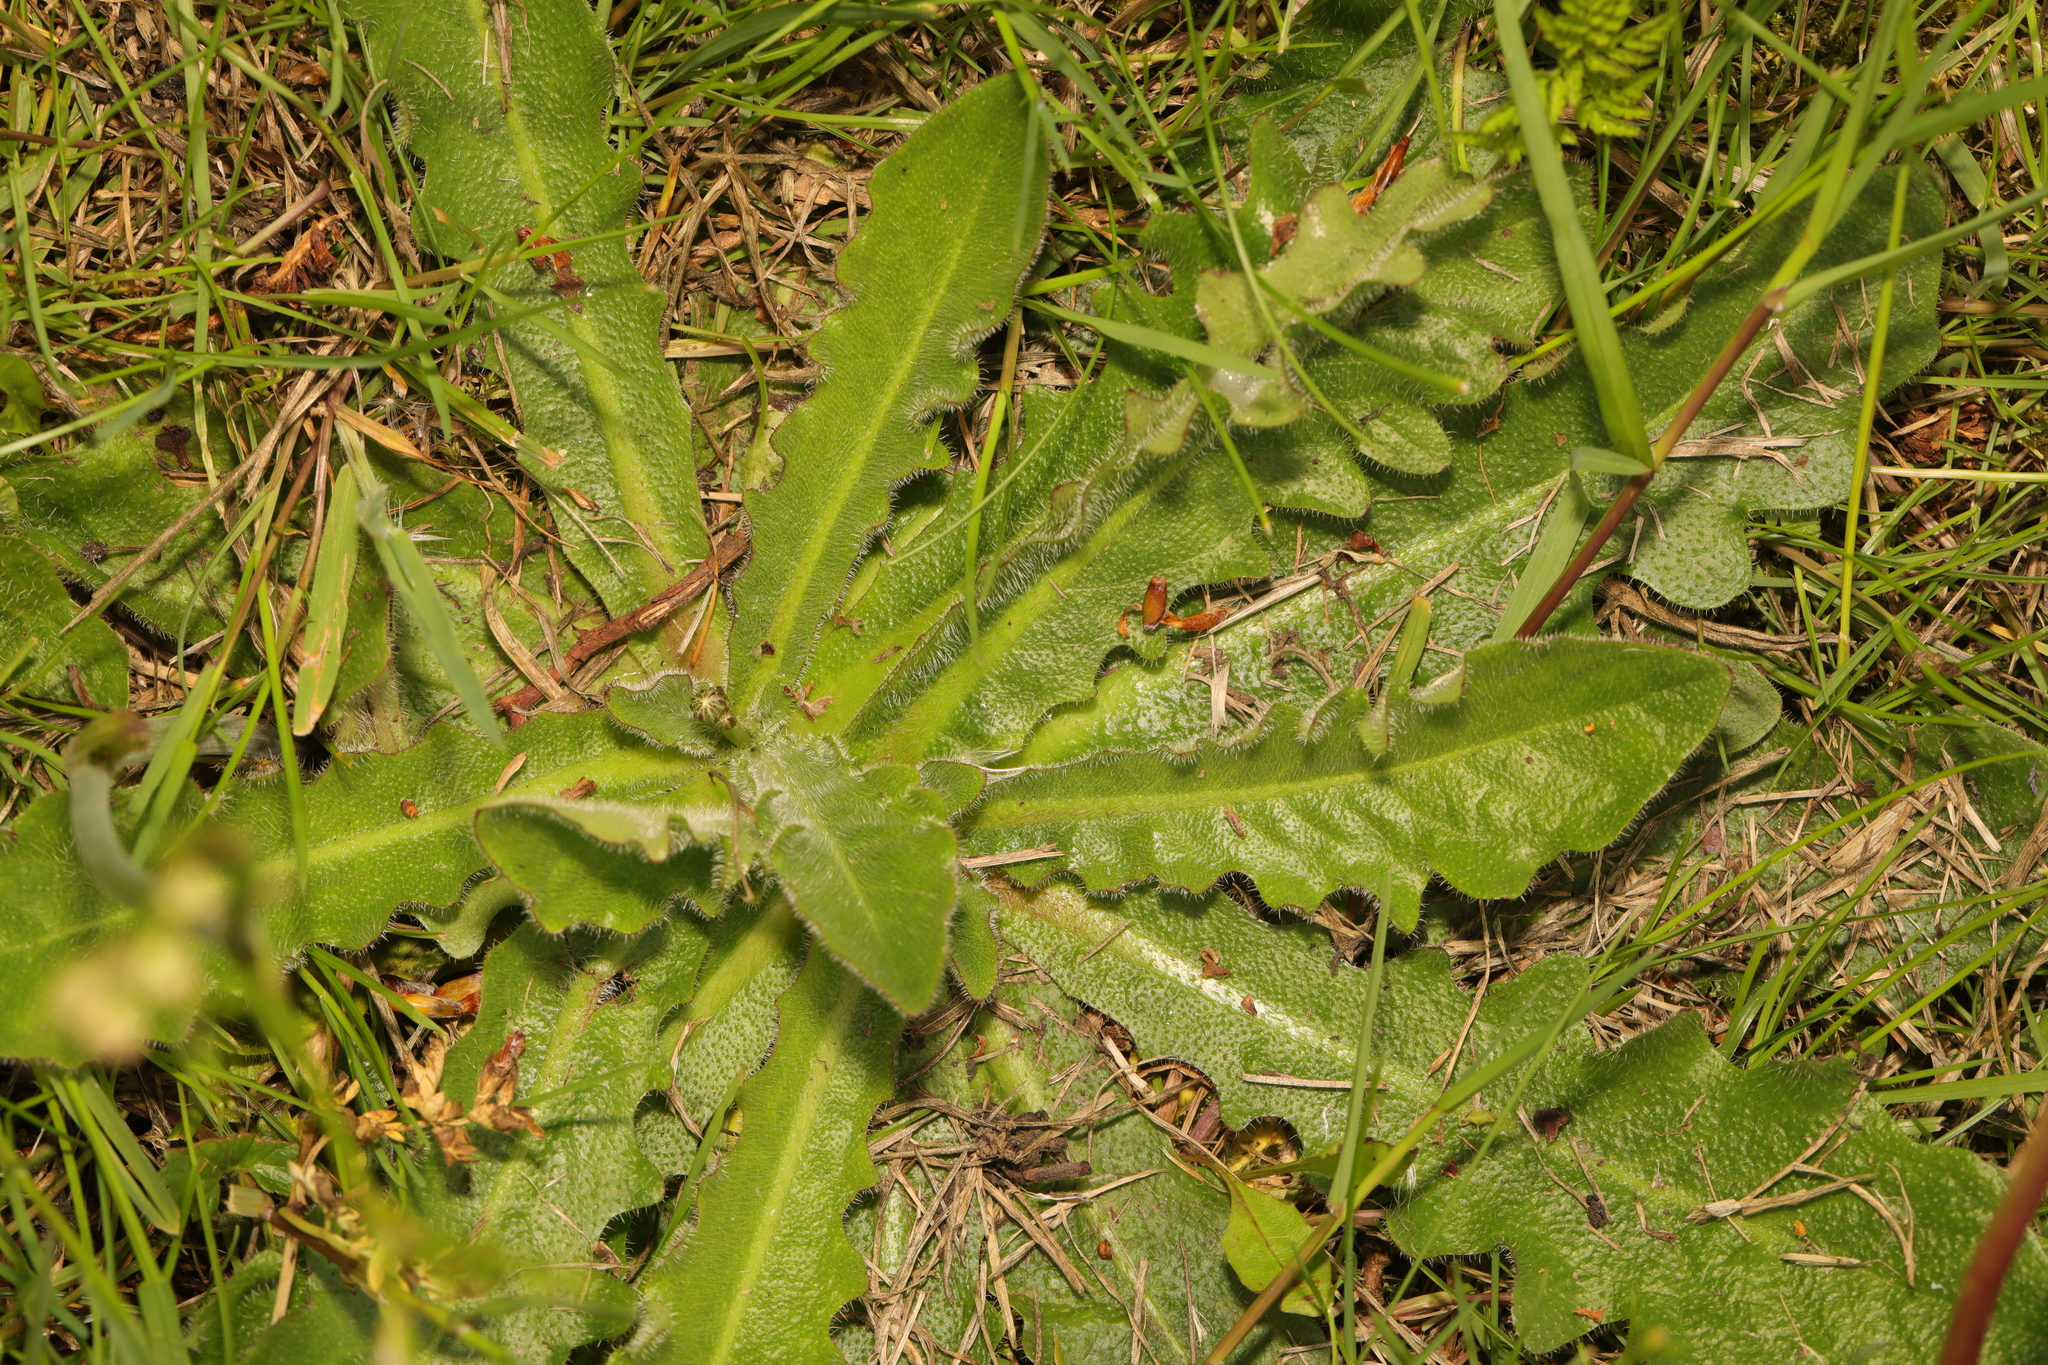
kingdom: Plantae
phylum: Tracheophyta
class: Magnoliopsida
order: Asterales
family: Asteraceae
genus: Hypochaeris
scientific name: Hypochaeris radicata
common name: Flatweed
